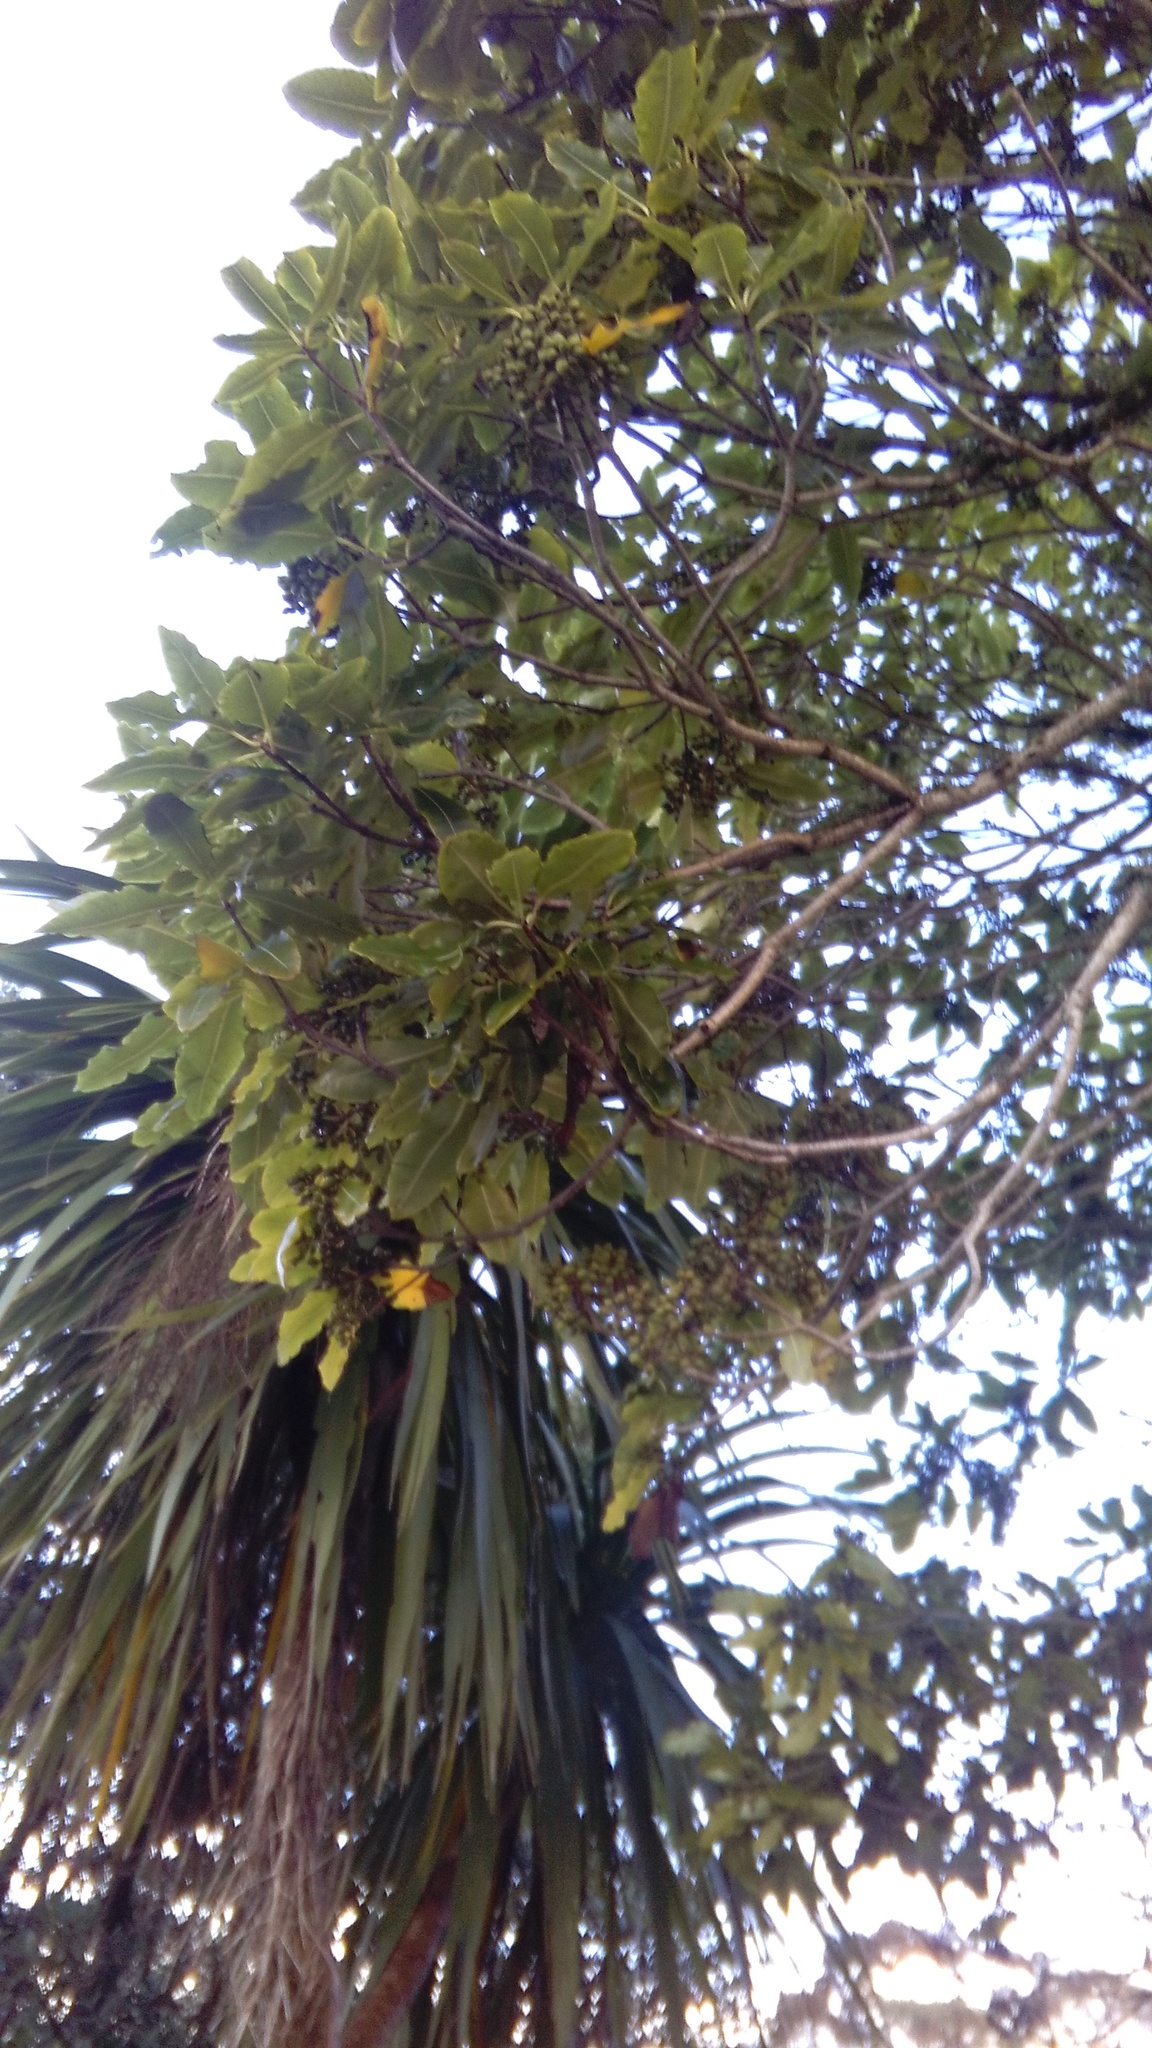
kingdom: Plantae
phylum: Tracheophyta
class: Magnoliopsida
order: Apiales
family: Pittosporaceae
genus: Pittosporum
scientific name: Pittosporum eugenioides
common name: Lemonwood
